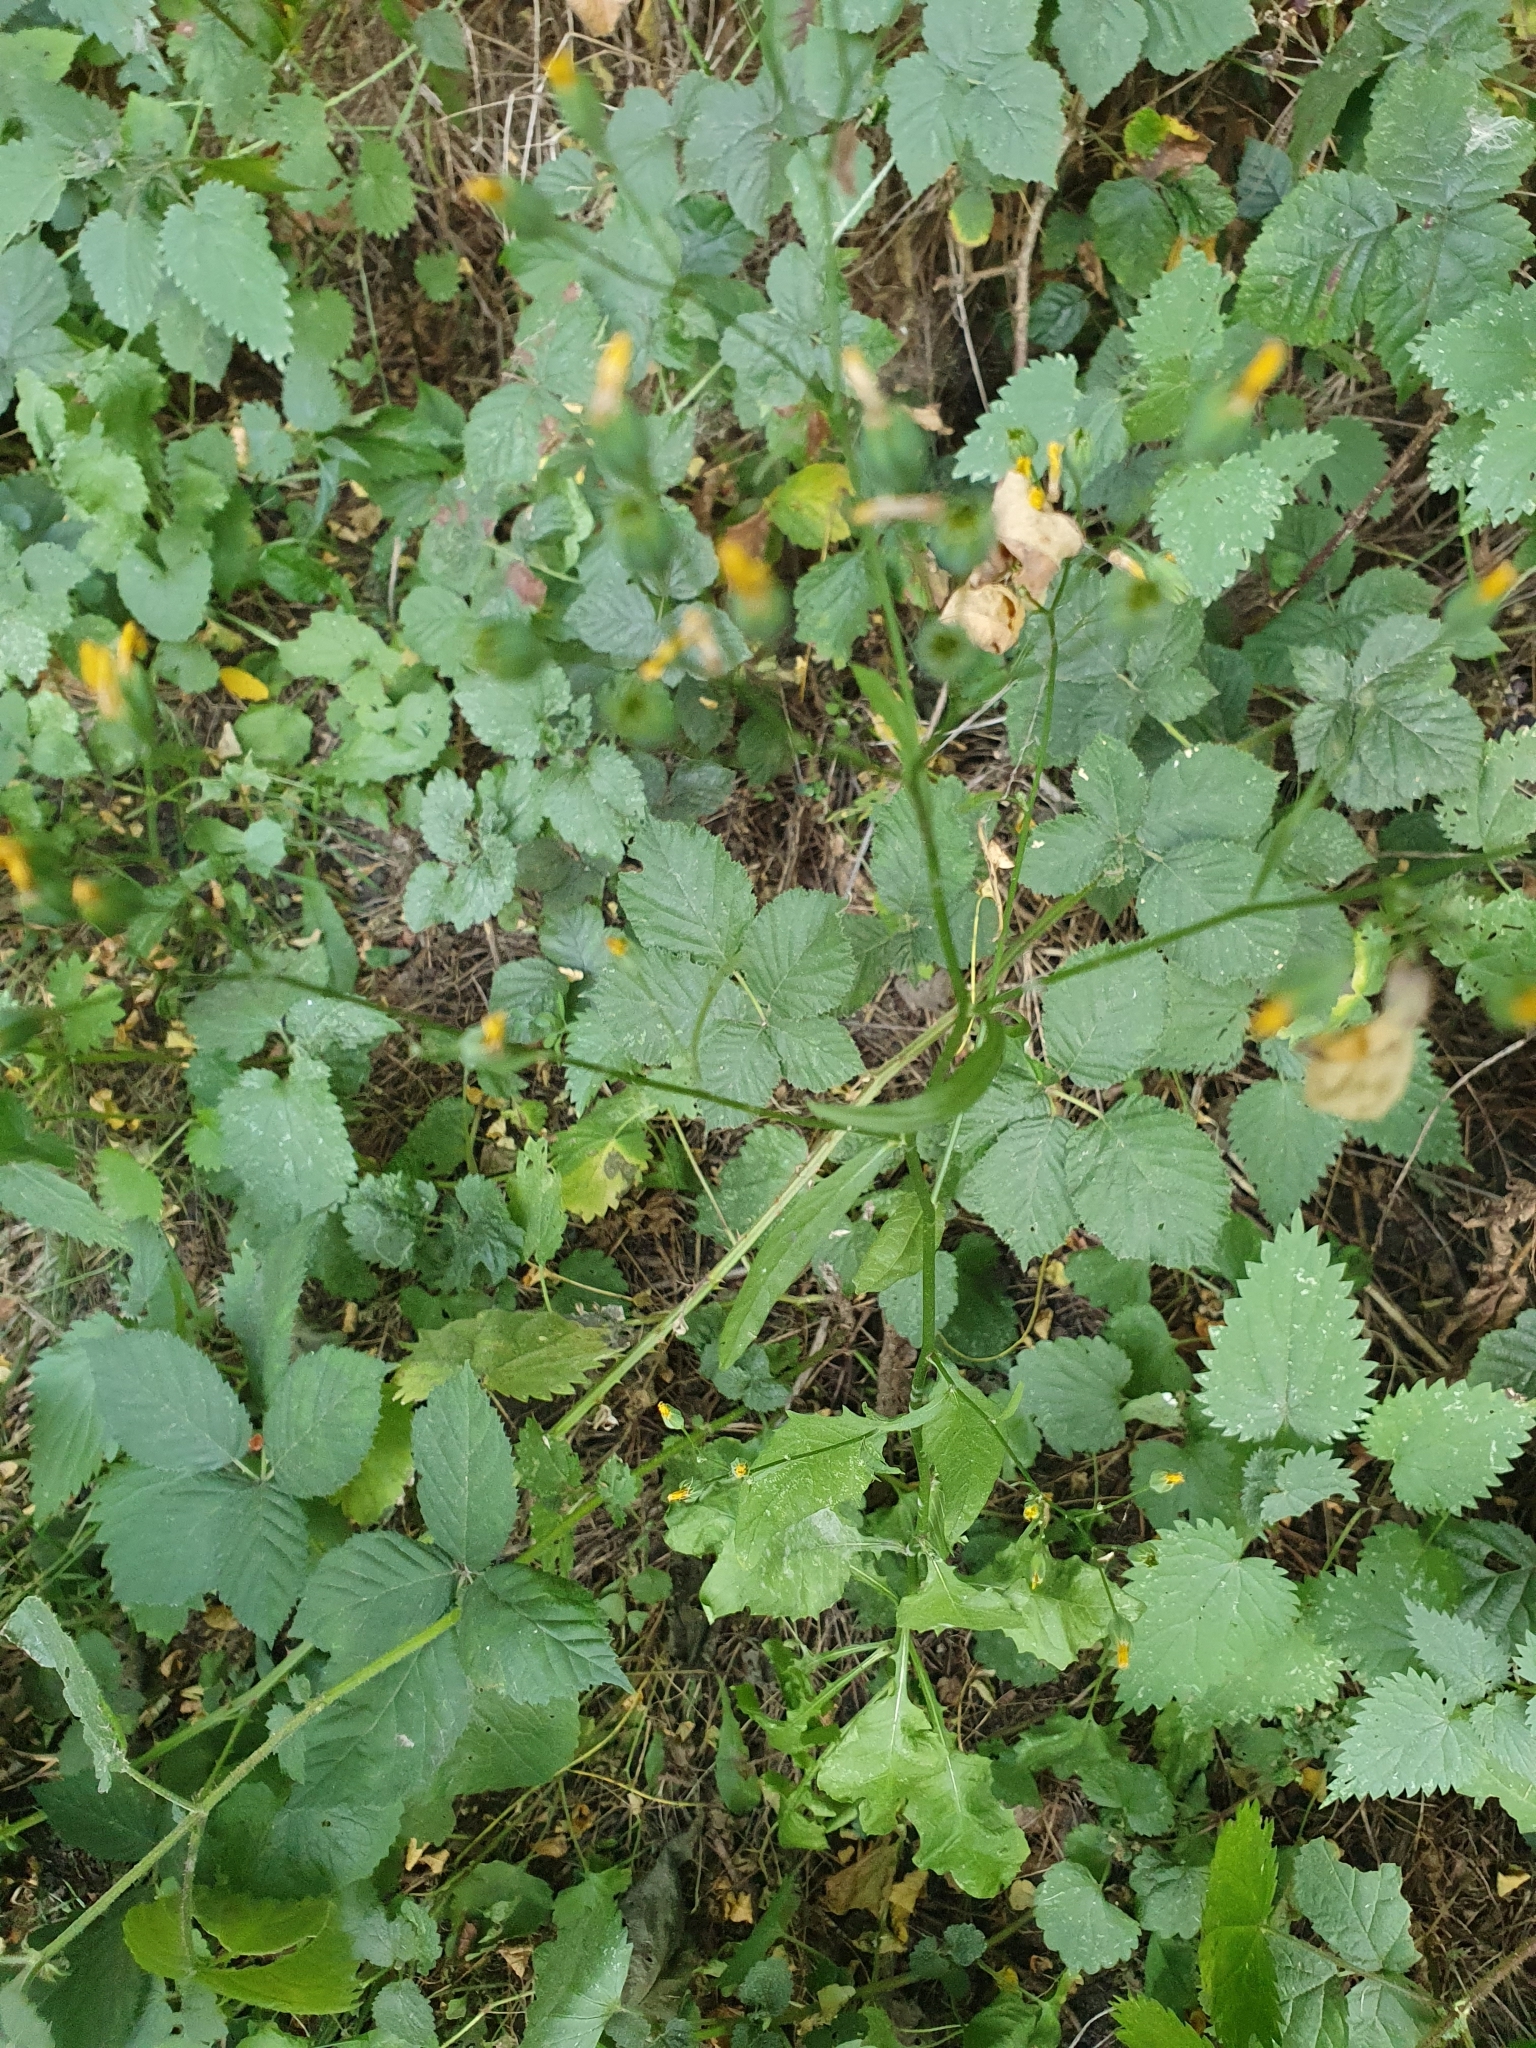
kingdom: Plantae
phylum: Tracheophyta
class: Magnoliopsida
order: Asterales
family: Asteraceae
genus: Lapsana
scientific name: Lapsana communis
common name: Nipplewort
